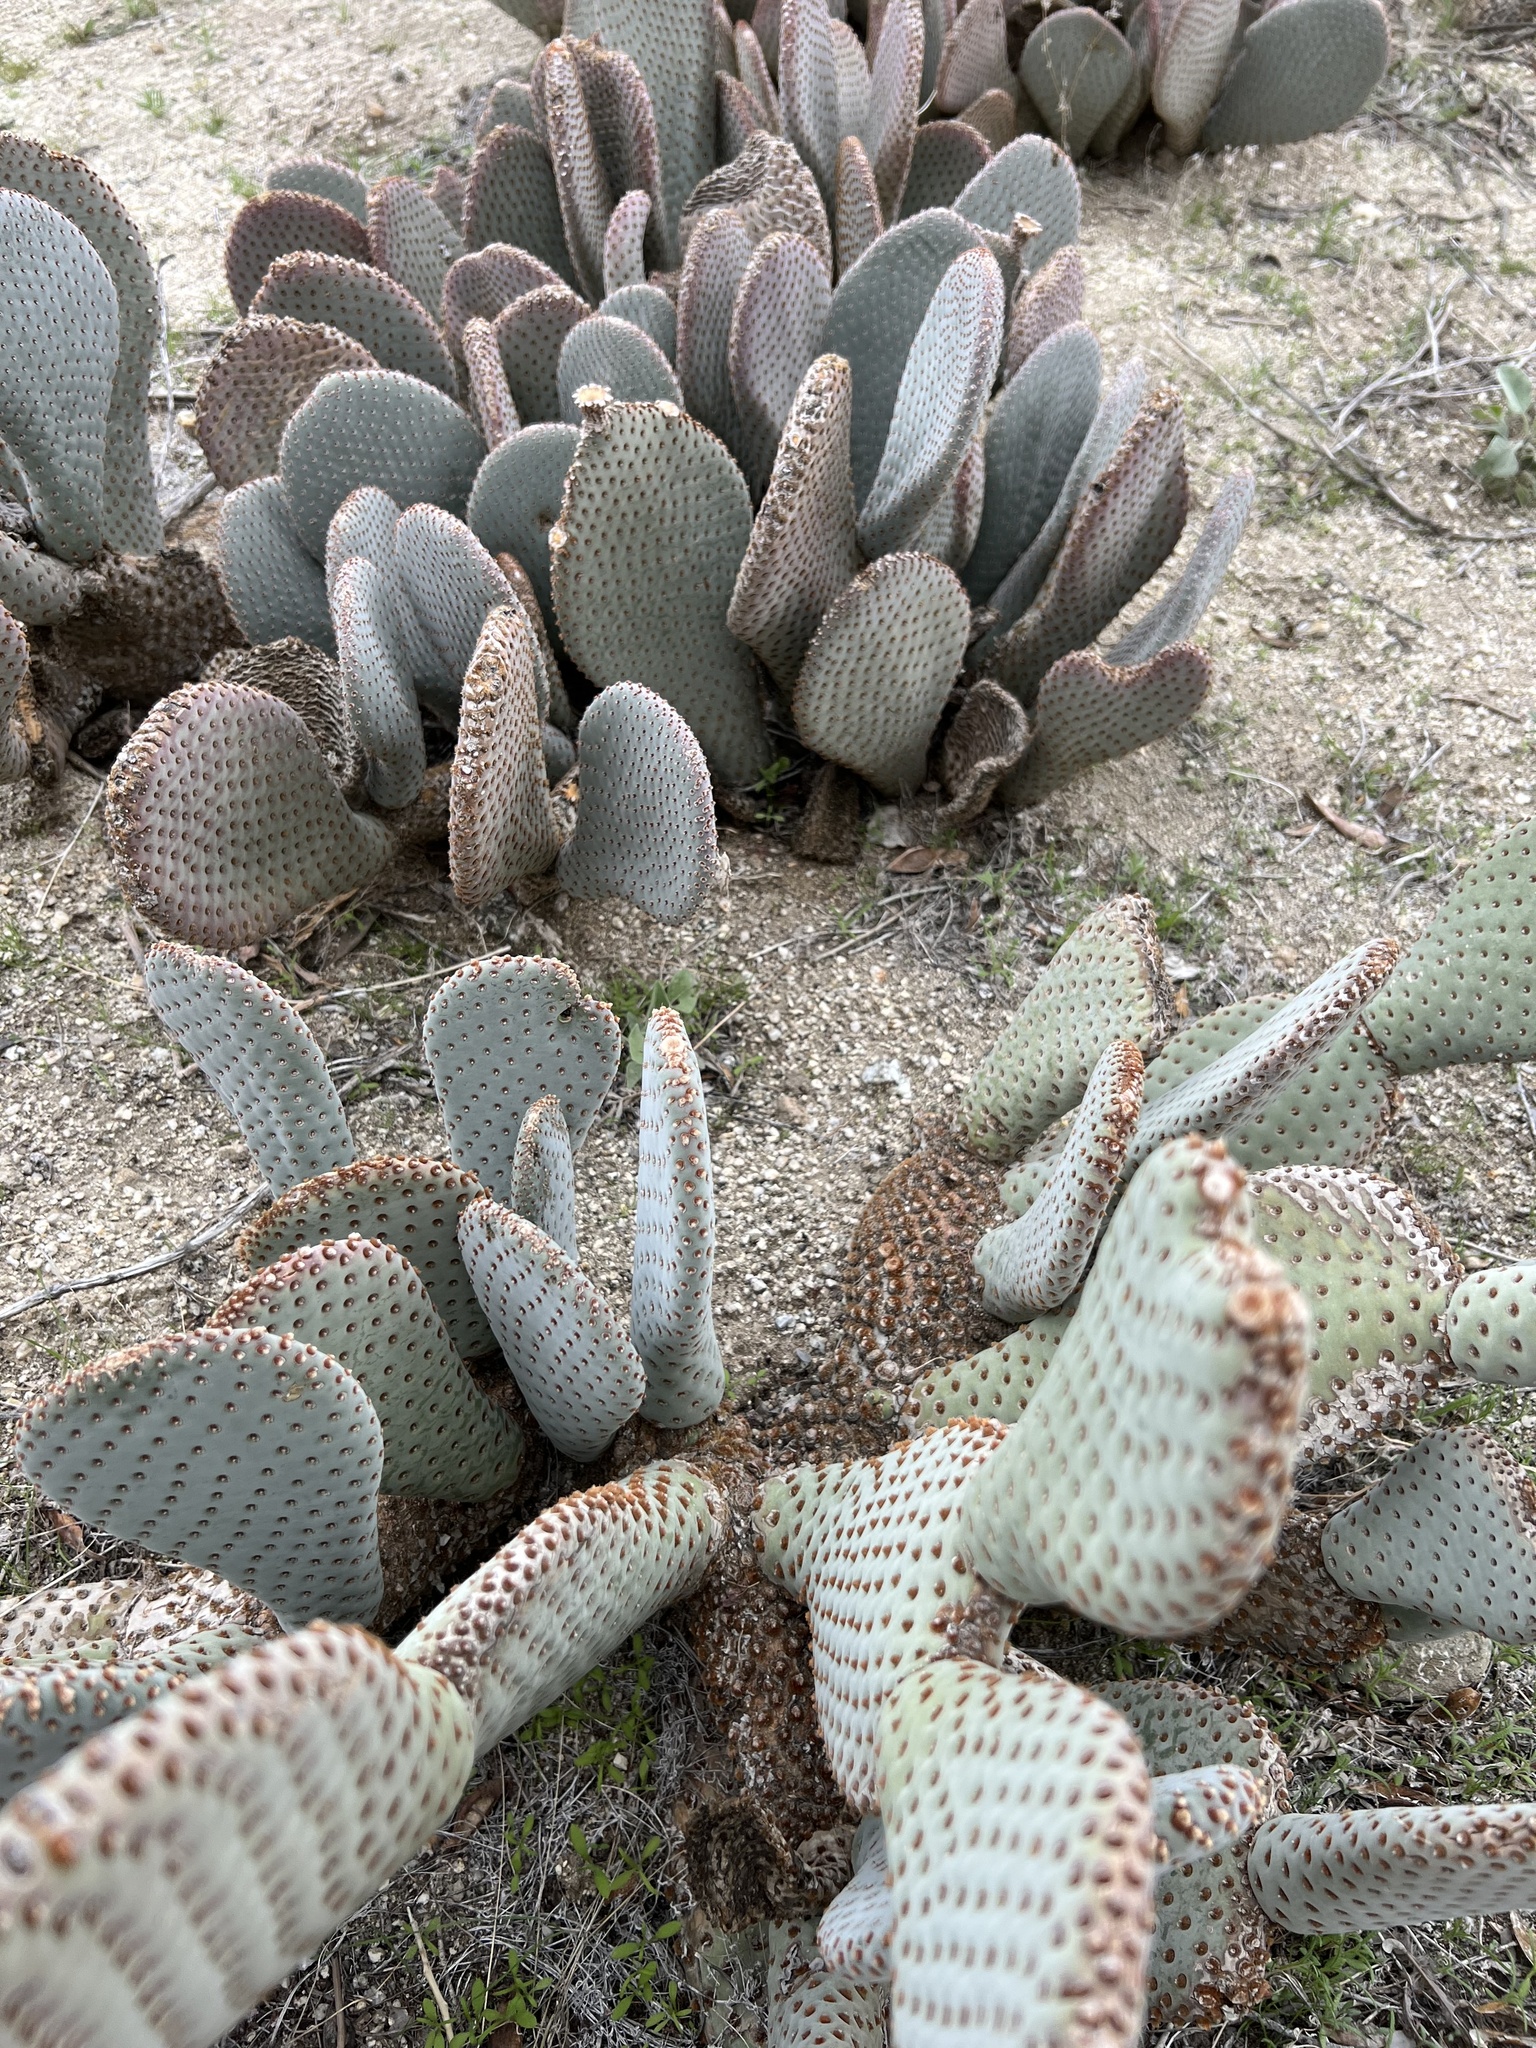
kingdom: Plantae
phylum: Tracheophyta
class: Magnoliopsida
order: Caryophyllales
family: Cactaceae
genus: Opuntia
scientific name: Opuntia basilaris
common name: Beavertail prickly-pear
